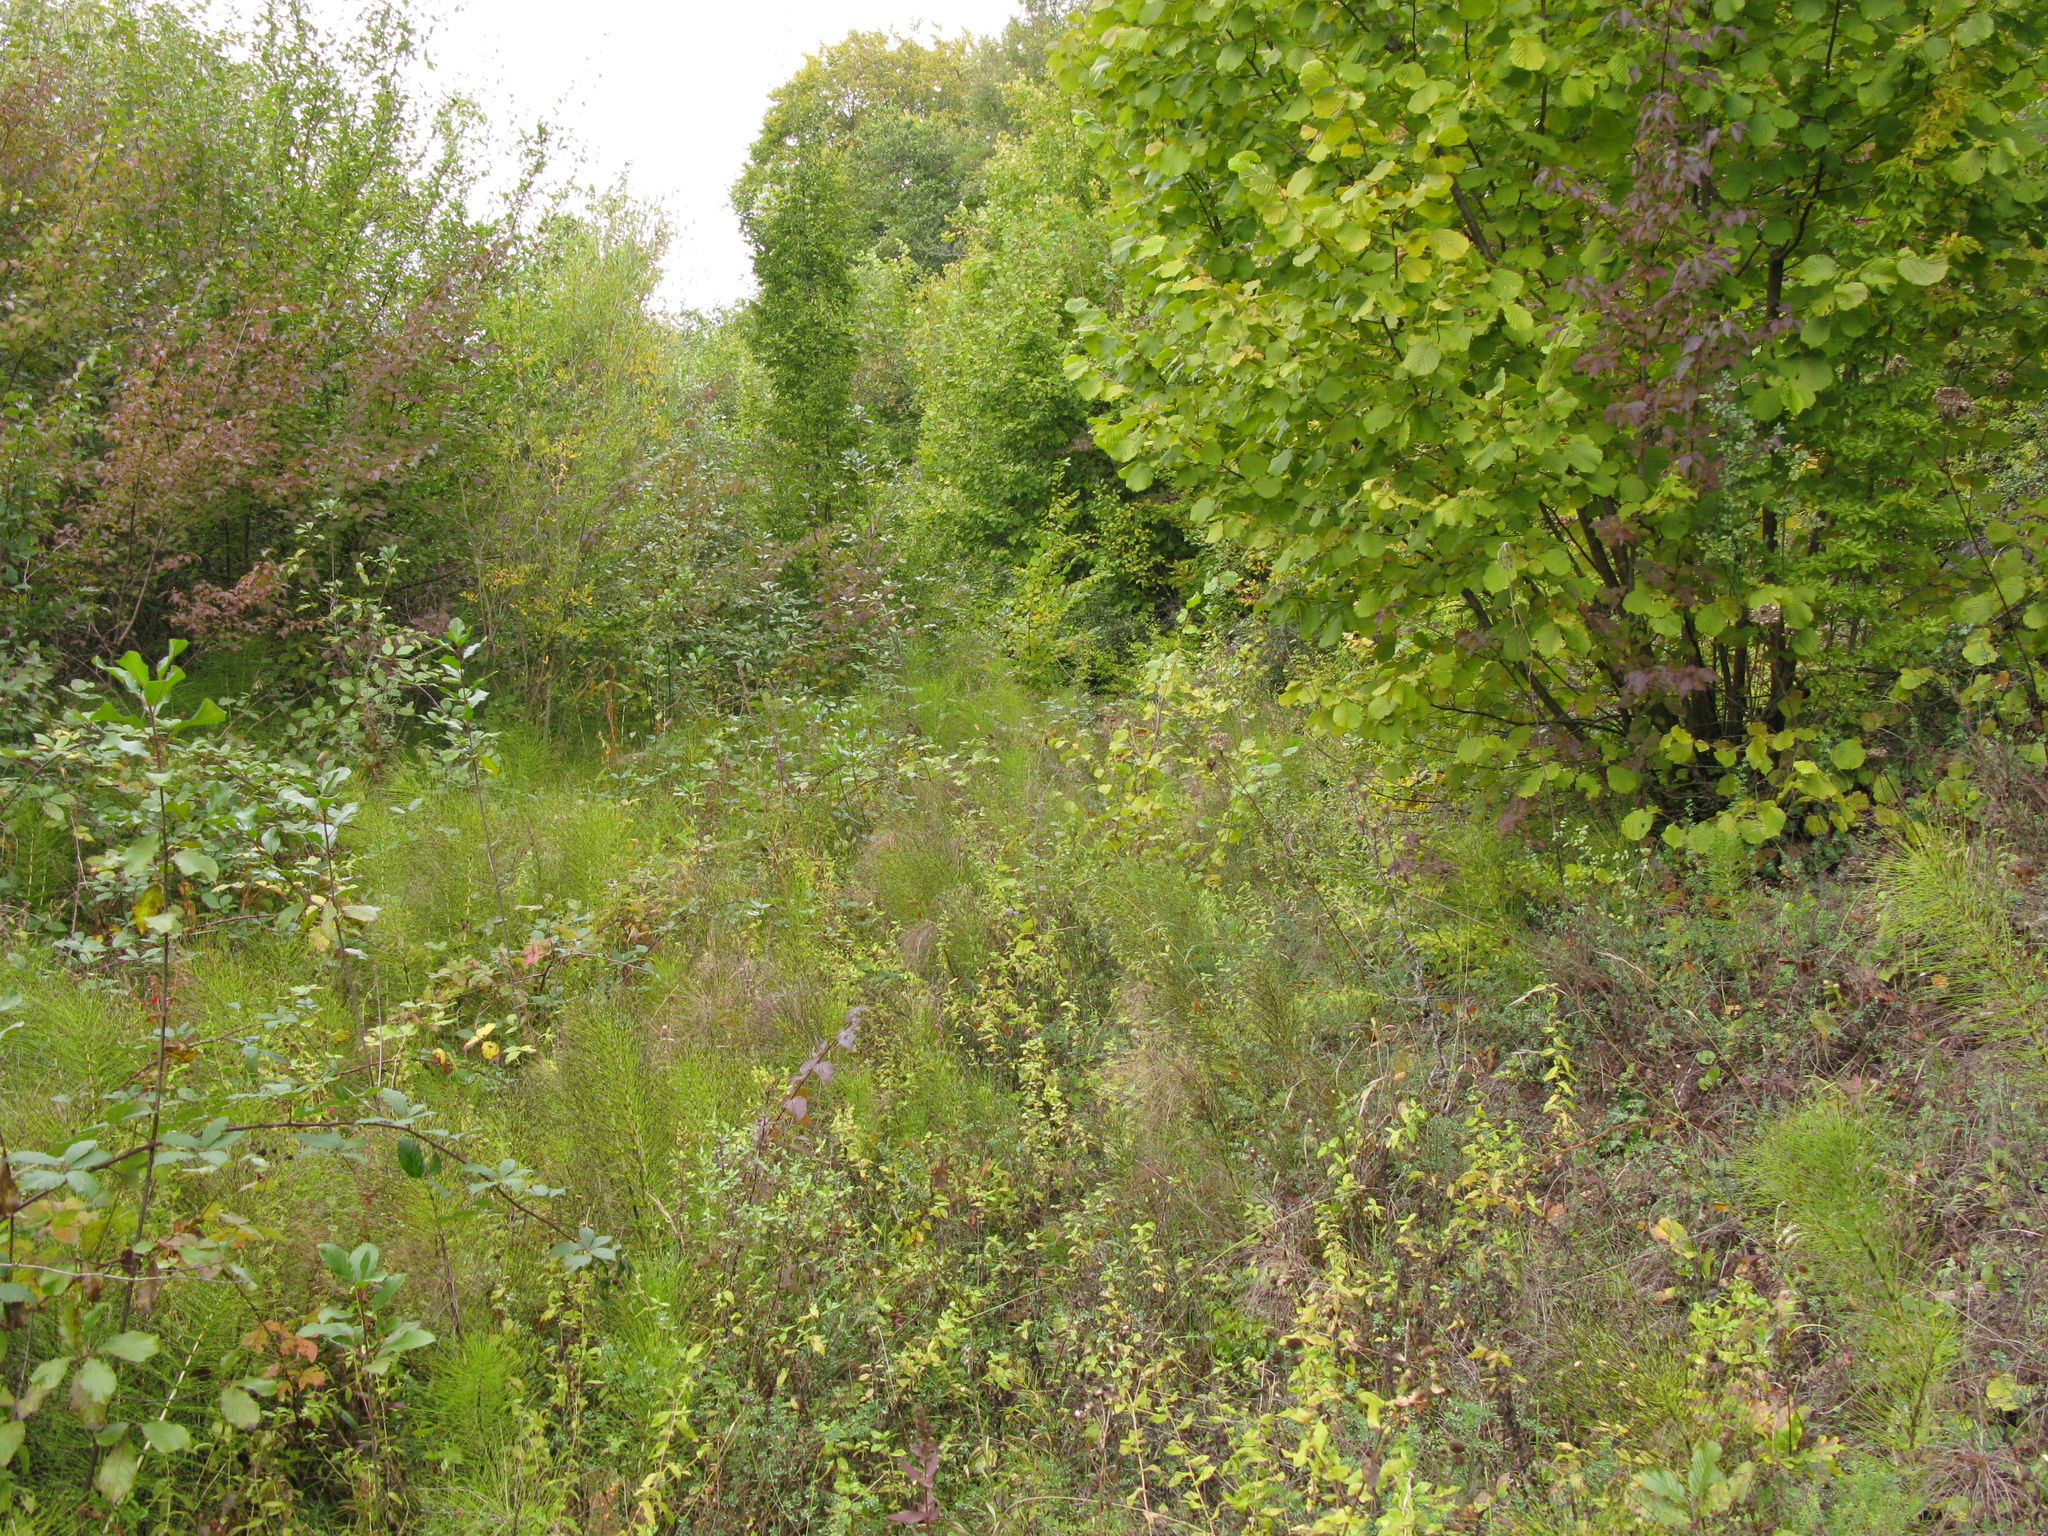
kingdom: Plantae
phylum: Tracheophyta
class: Magnoliopsida
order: Fagales
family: Betulaceae
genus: Corylus
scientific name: Corylus avellana
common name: European hazel
